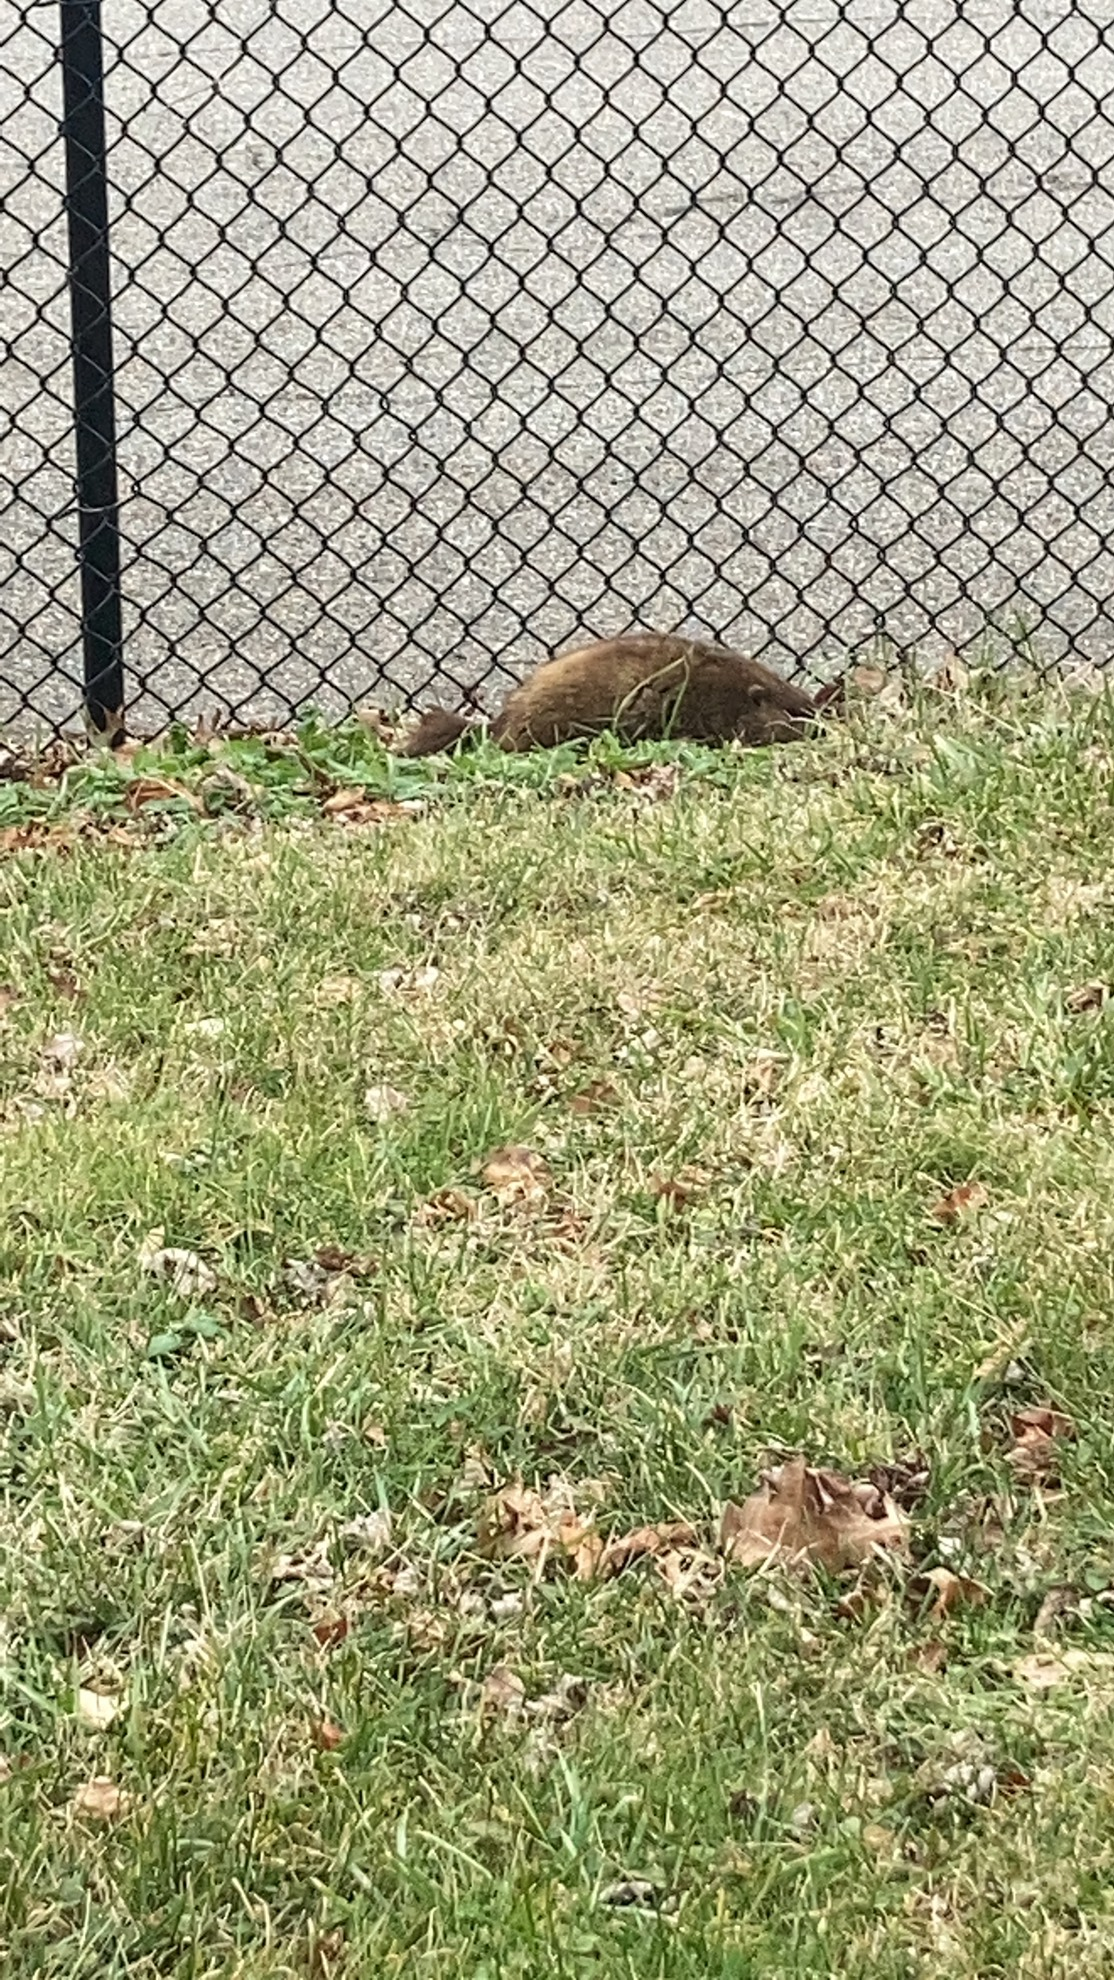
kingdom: Animalia
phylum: Chordata
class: Mammalia
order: Rodentia
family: Sciuridae
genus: Marmota
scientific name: Marmota monax
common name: Groundhog
